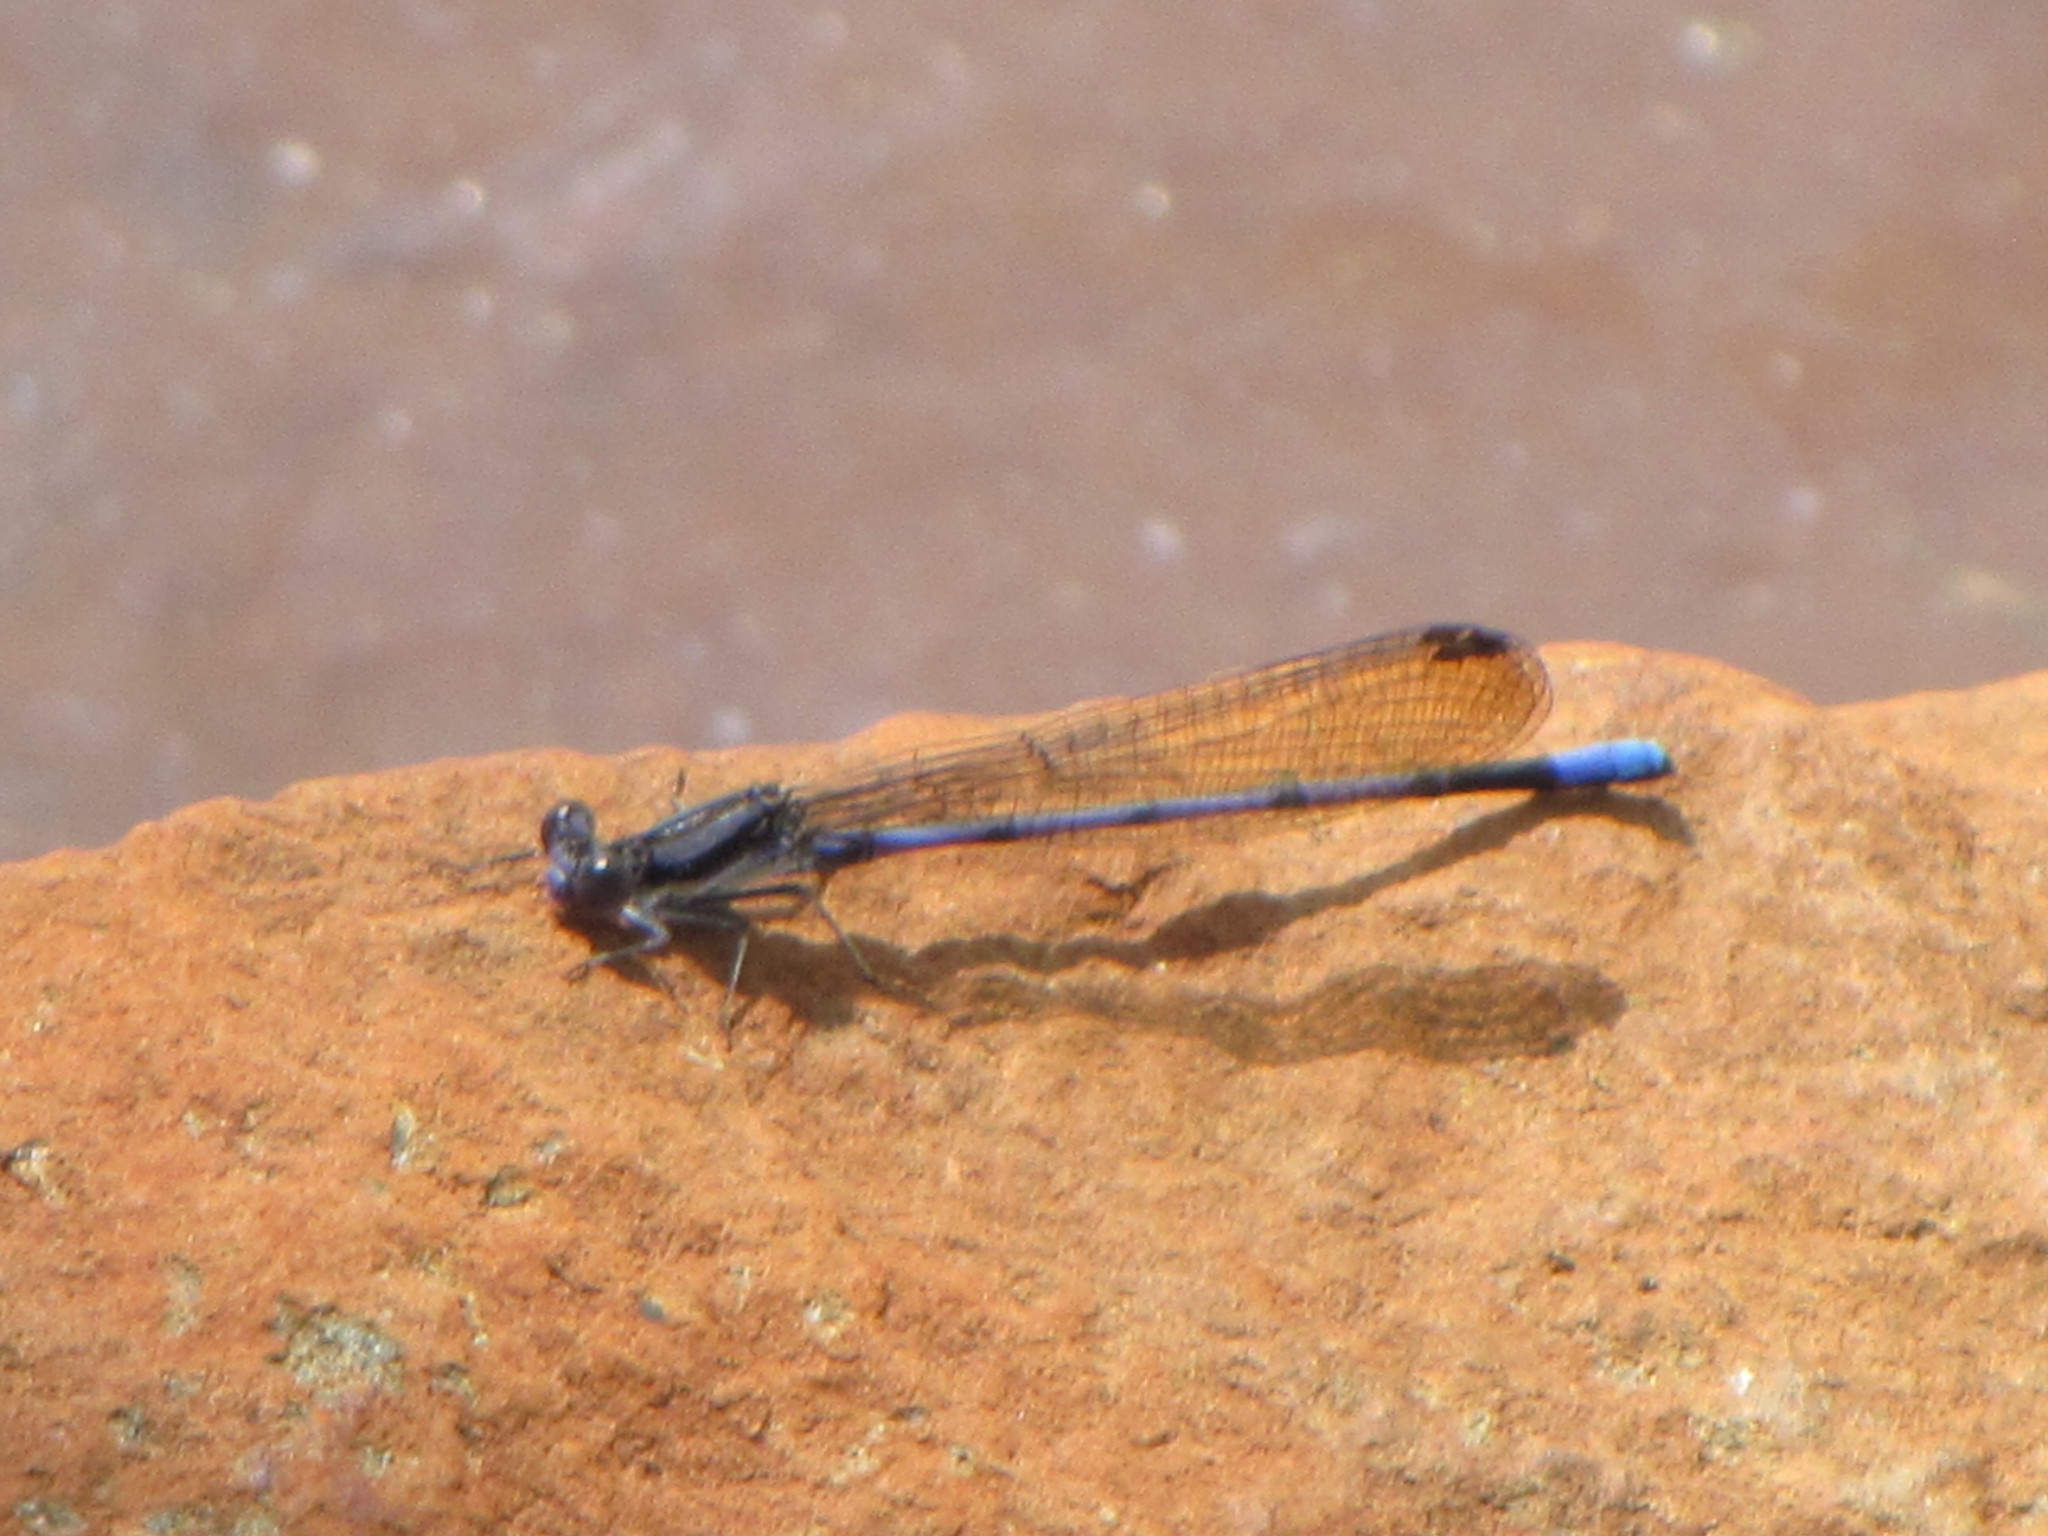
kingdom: Animalia
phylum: Arthropoda
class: Insecta
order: Odonata
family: Coenagrionidae
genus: Argia
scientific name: Argia fumipennis
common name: Variable dancer
